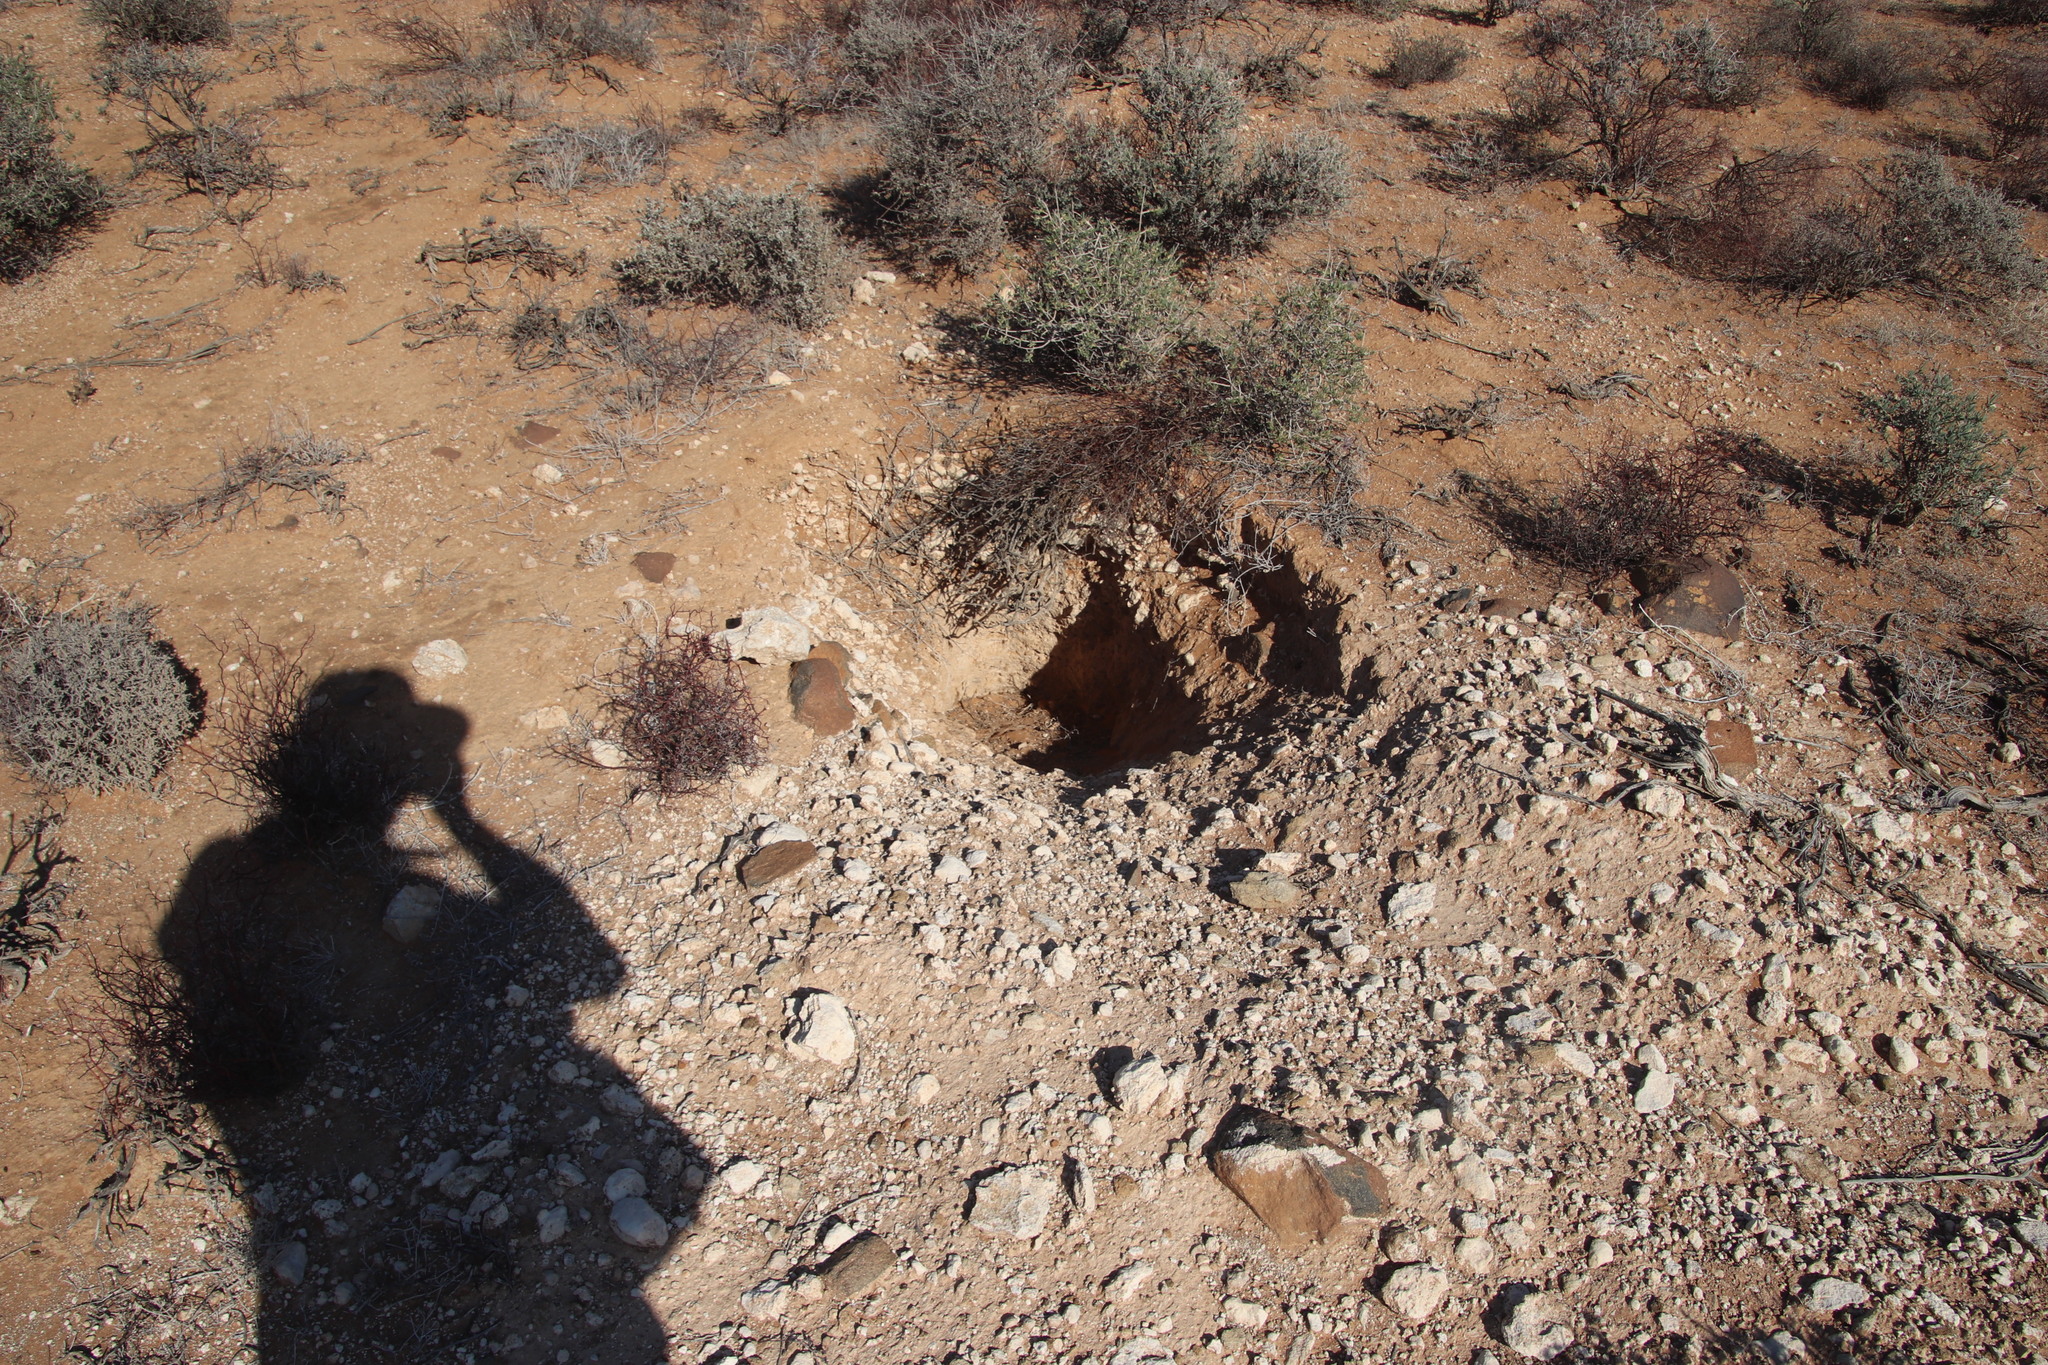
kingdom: Animalia
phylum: Chordata
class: Mammalia
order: Tubulidentata
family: Orycteropodidae
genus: Orycteropus
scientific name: Orycteropus afer
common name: Aardvark
